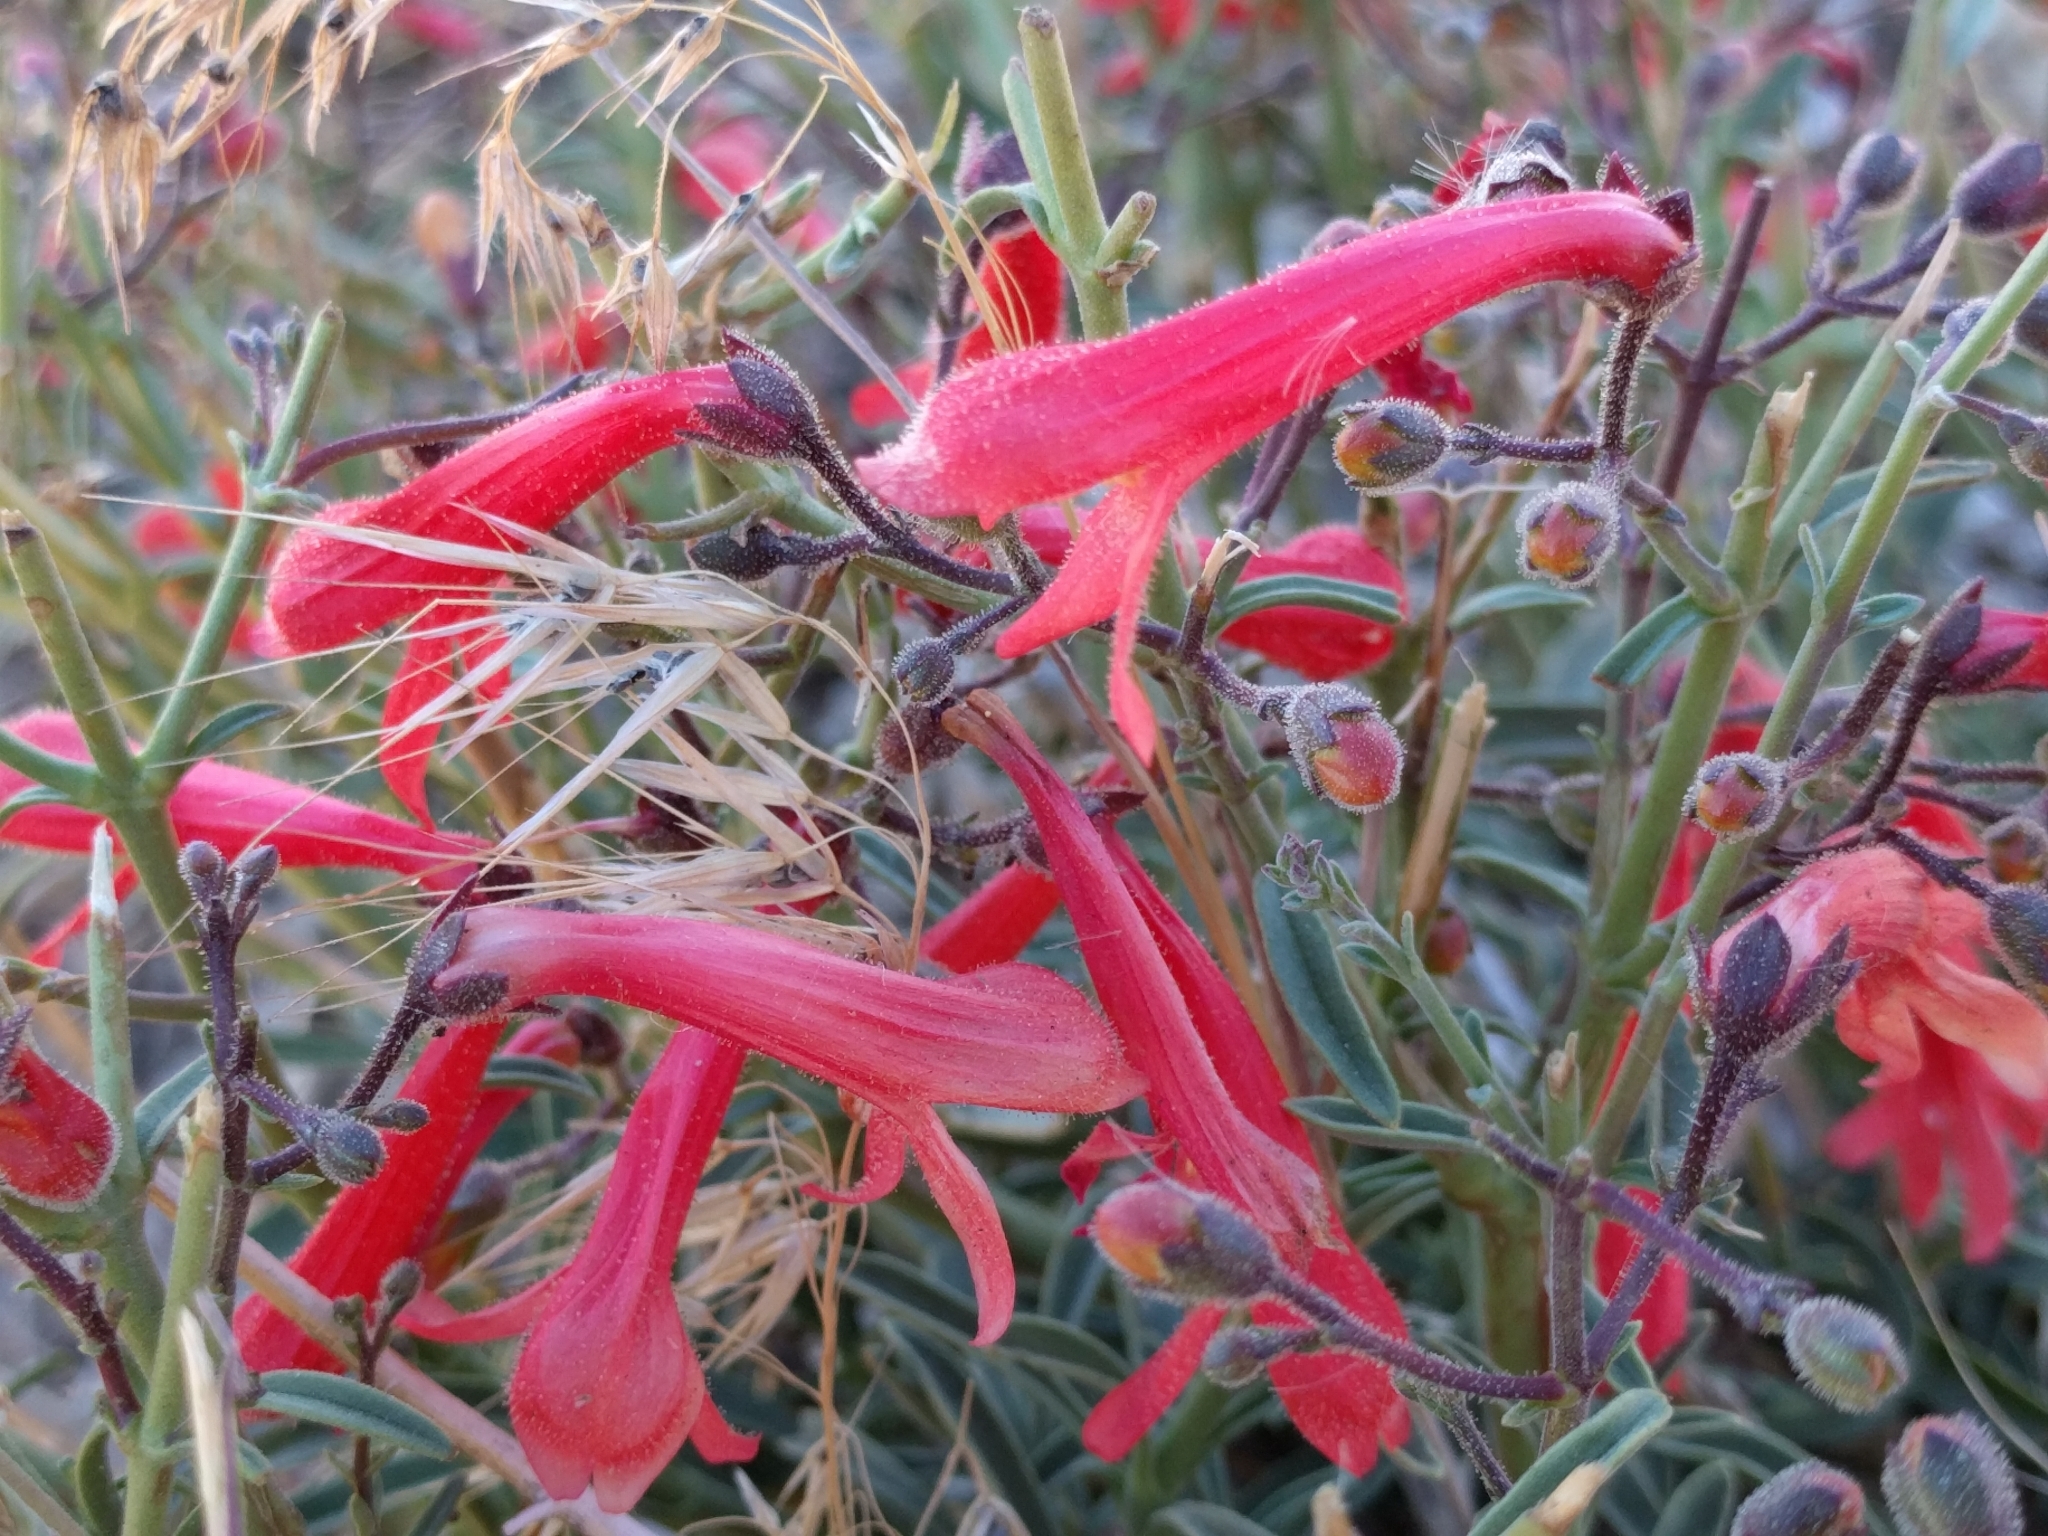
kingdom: Plantae
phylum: Tracheophyta
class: Magnoliopsida
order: Lamiales
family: Plantaginaceae
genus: Penstemon
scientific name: Penstemon rostriflorus
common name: Bridges's penstemon
